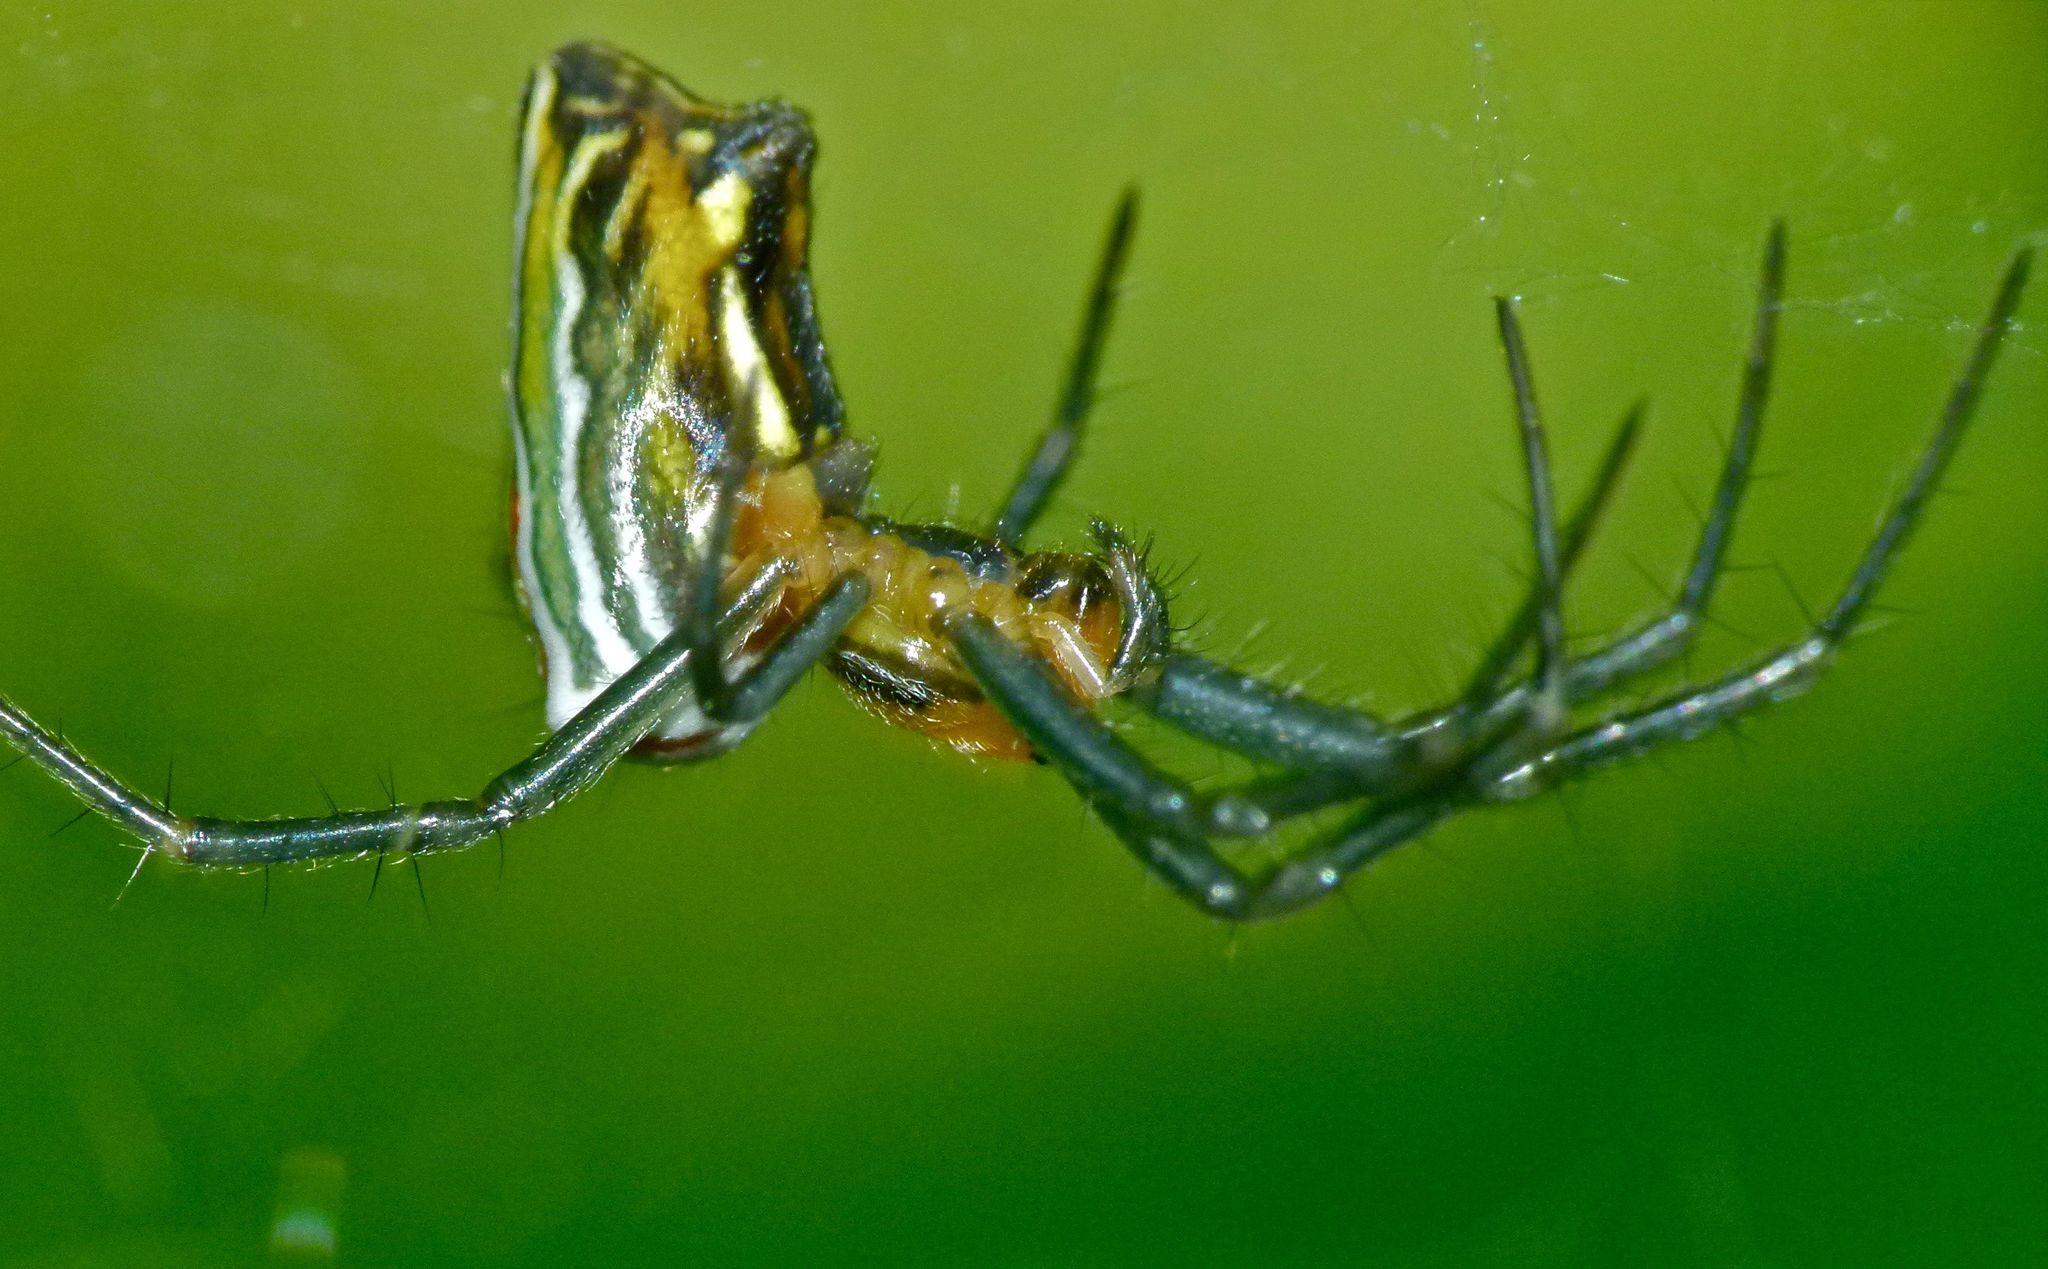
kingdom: Animalia
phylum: Arthropoda
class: Arachnida
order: Araneae
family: Araneidae
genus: Mecynogea
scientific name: Mecynogea lemniscata
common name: Orb weavers
